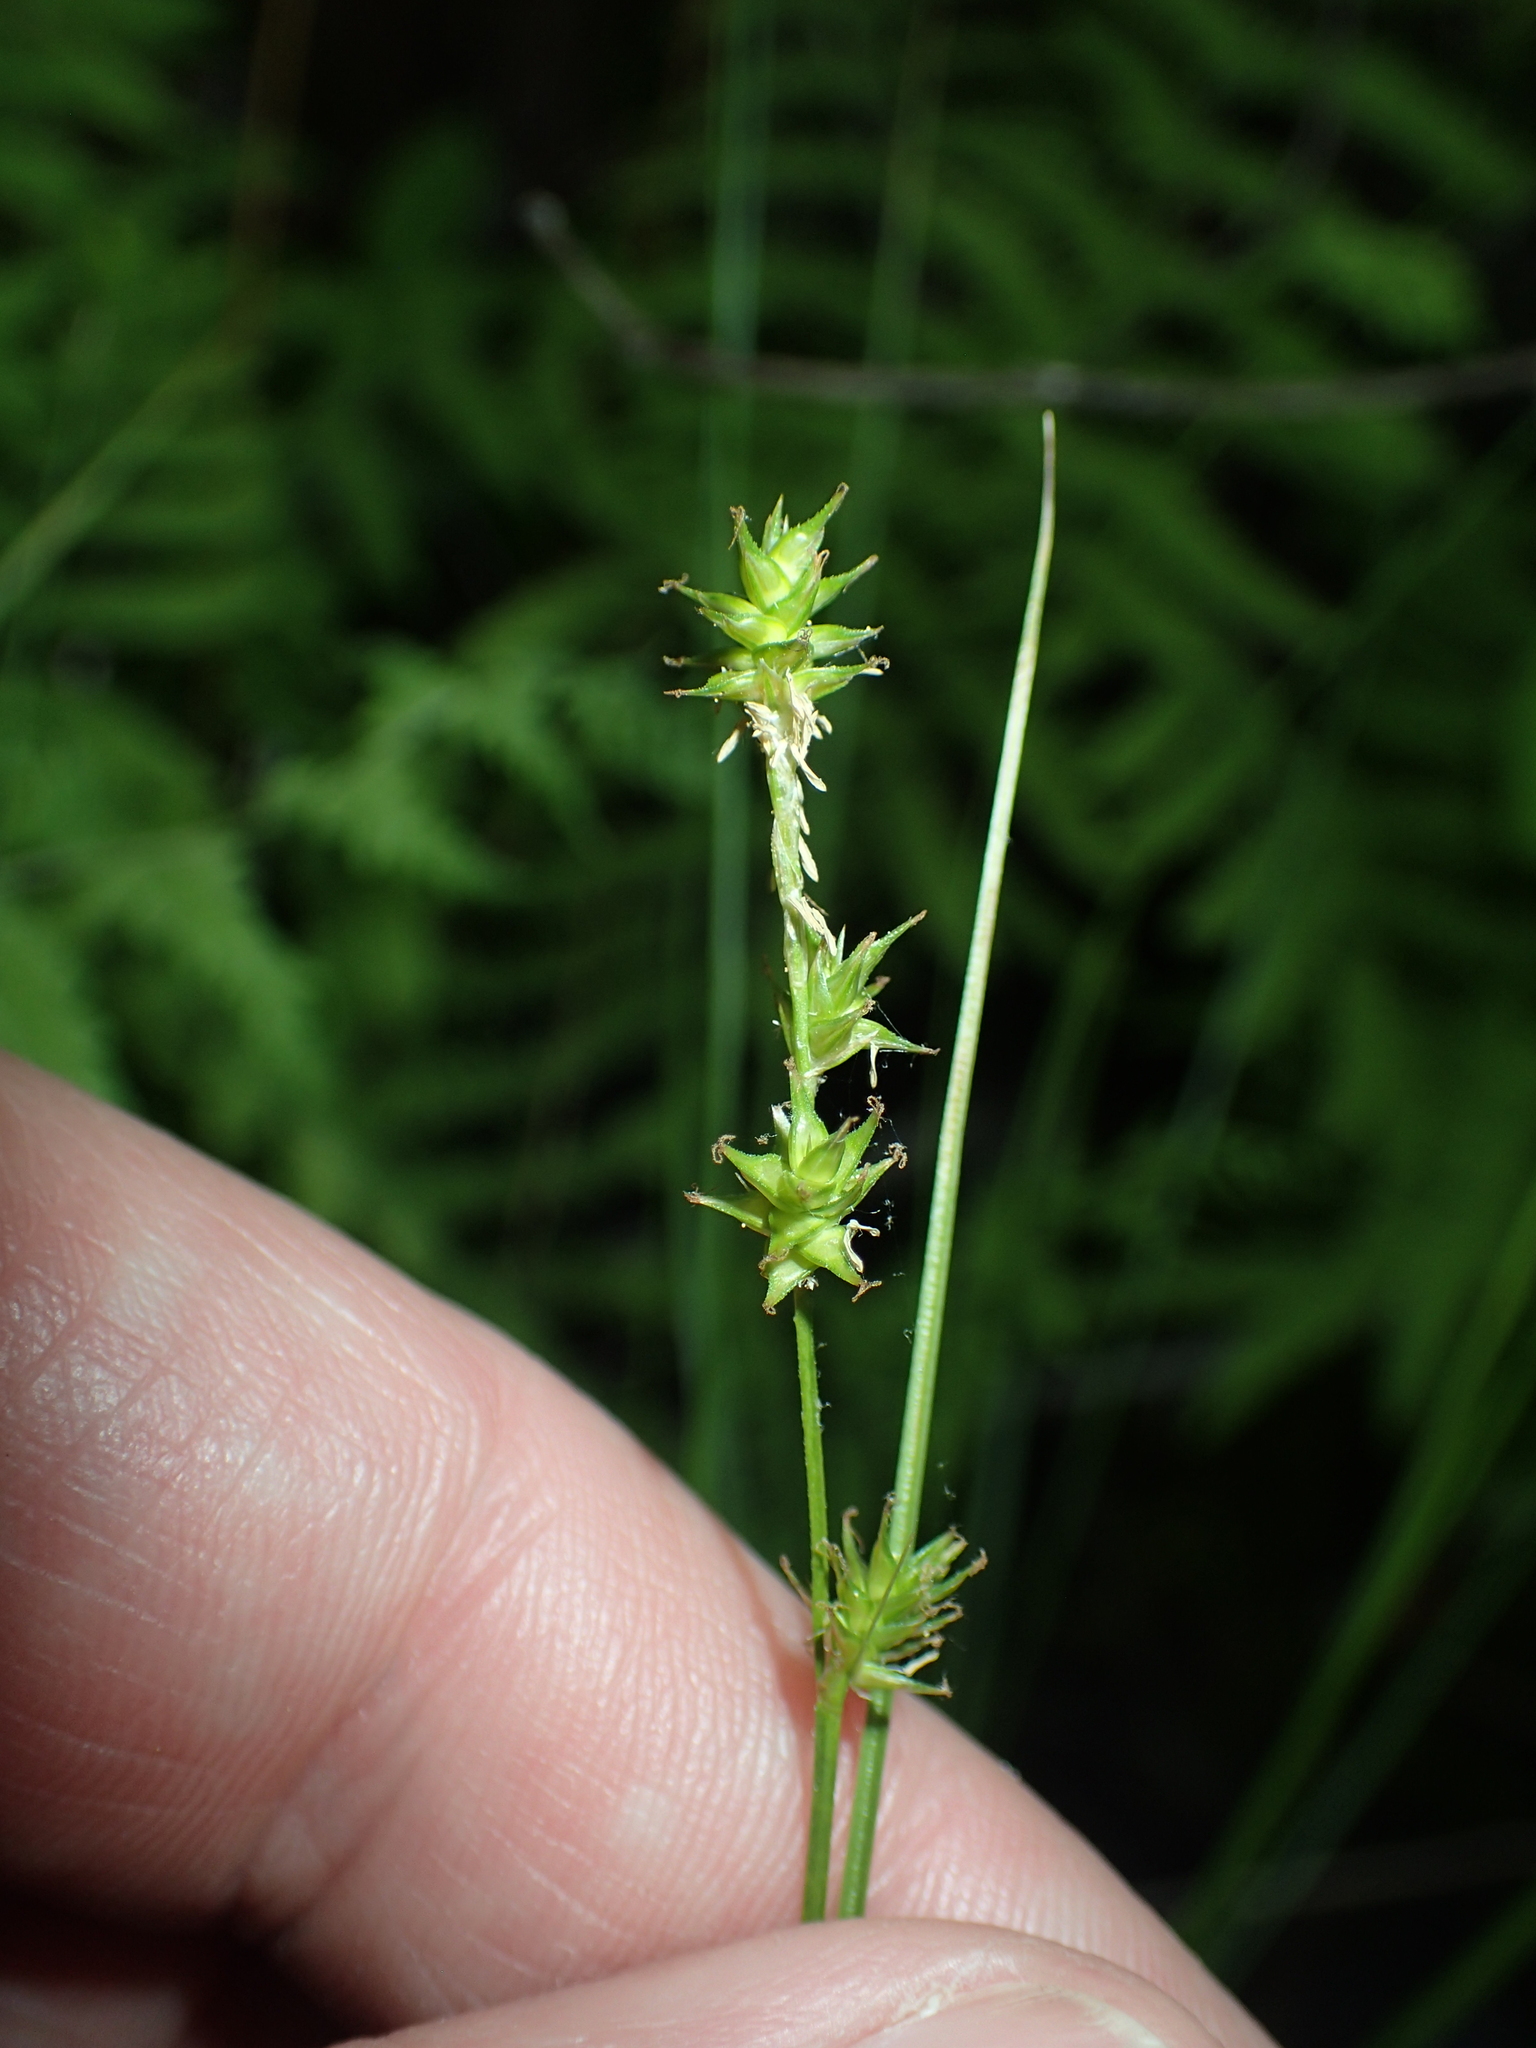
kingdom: Plantae
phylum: Tracheophyta
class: Liliopsida
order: Poales
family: Cyperaceae
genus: Carex
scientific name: Carex echinata
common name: Star sedge
